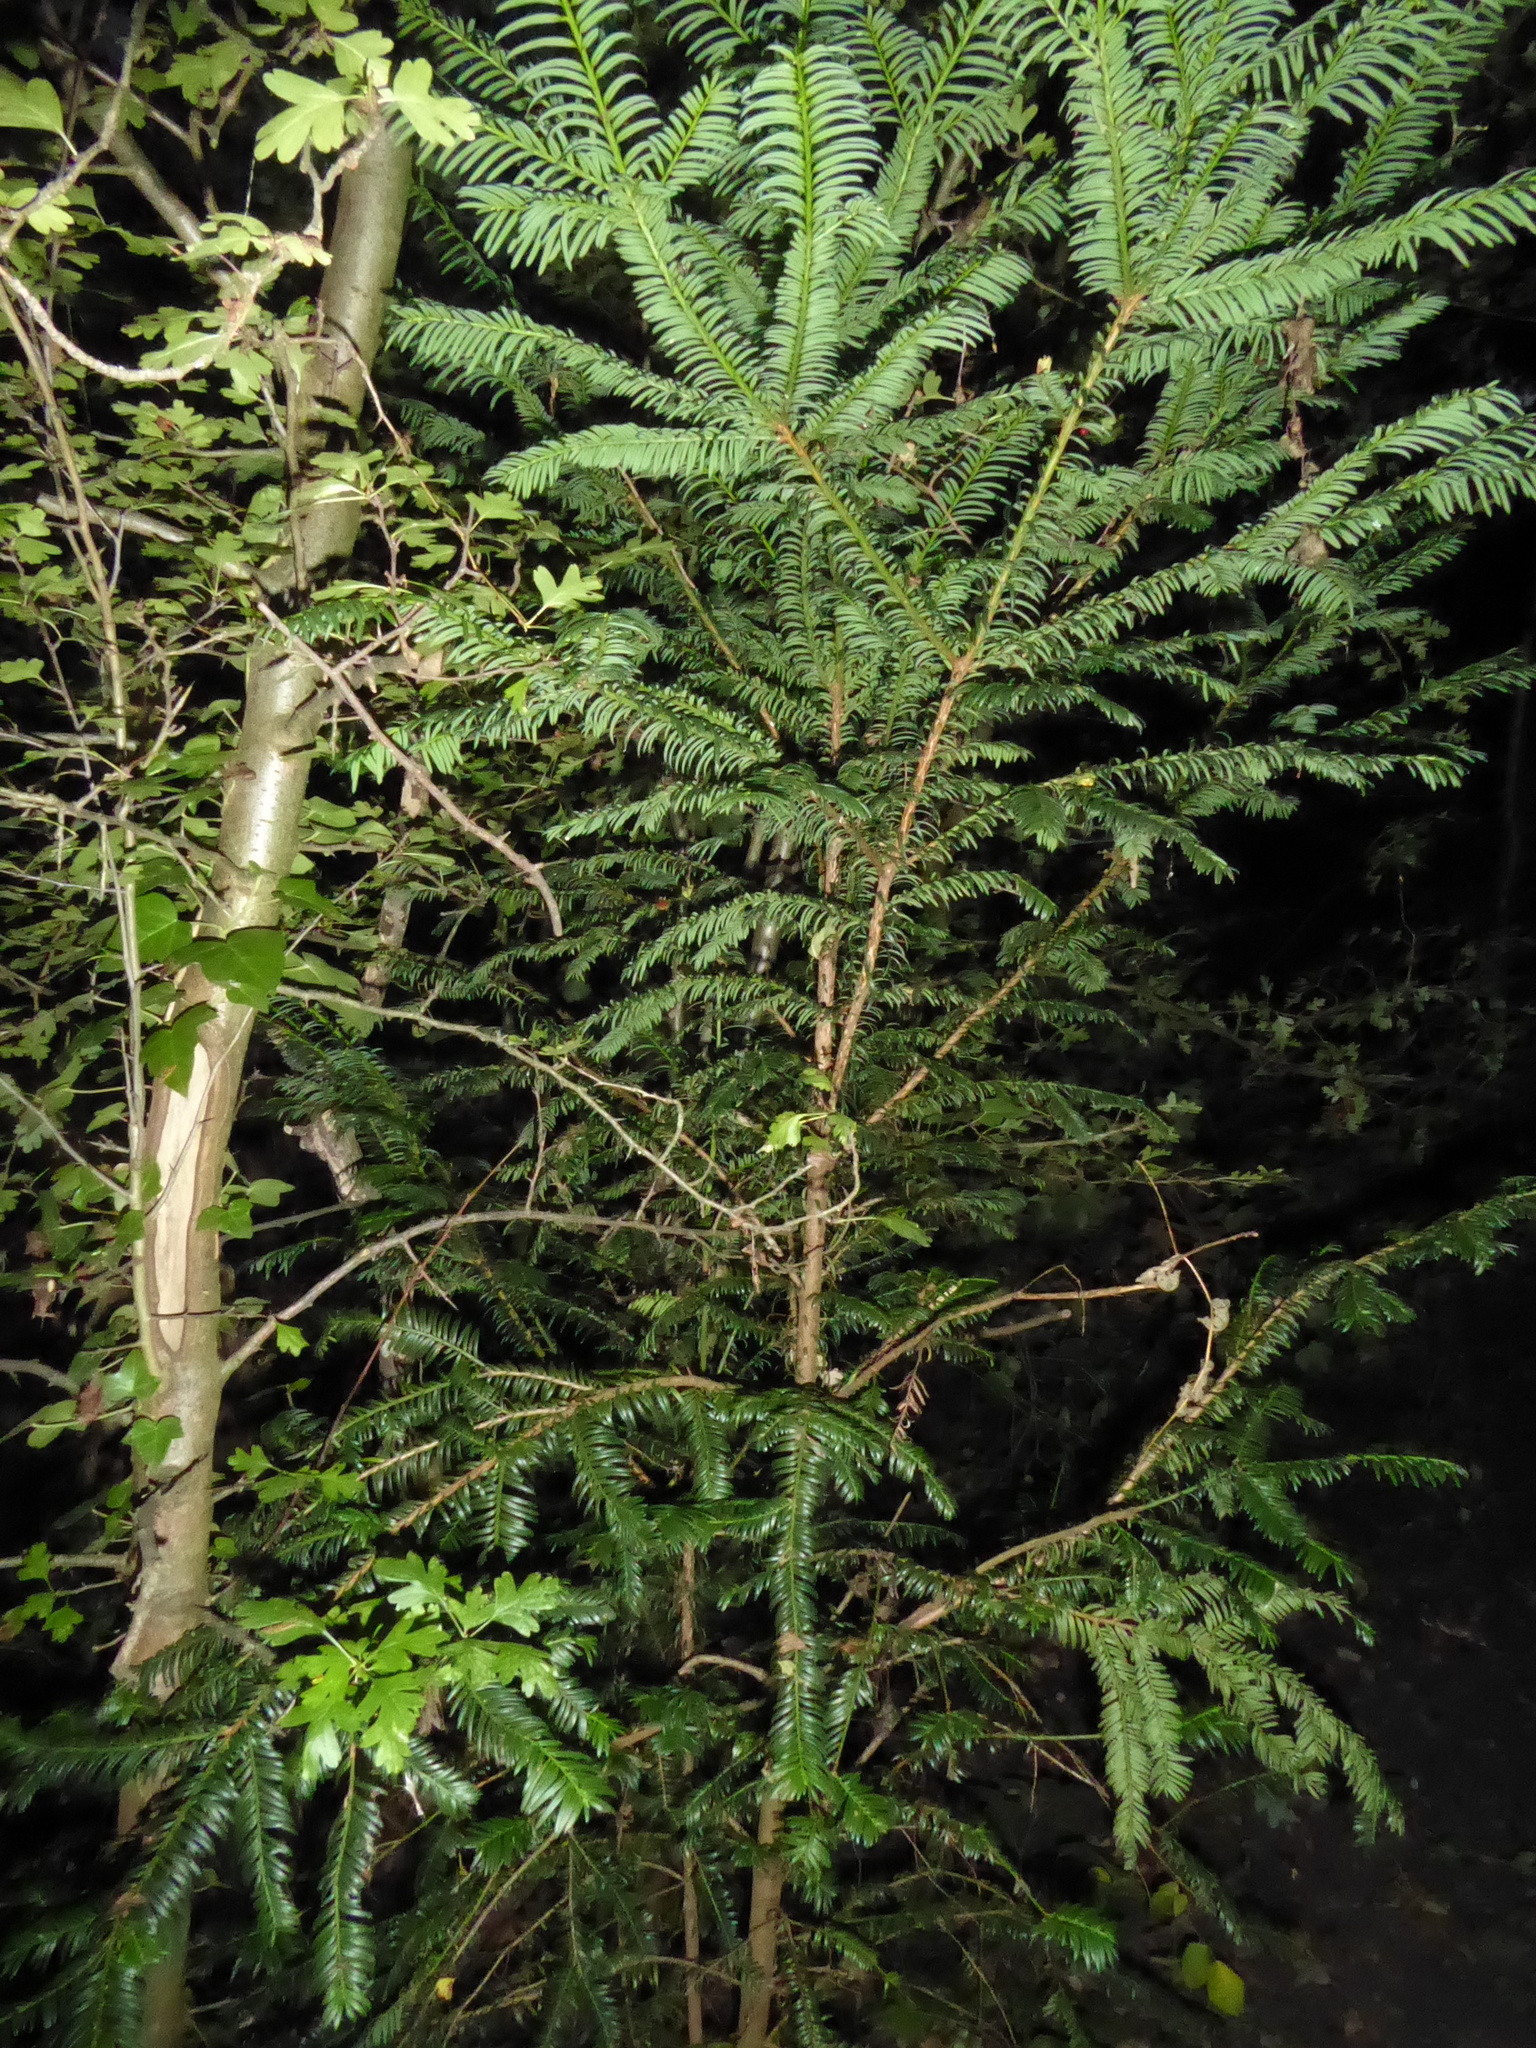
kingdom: Plantae
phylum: Tracheophyta
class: Pinopsida
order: Pinales
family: Taxaceae
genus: Taxus
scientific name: Taxus baccata
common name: Yew
